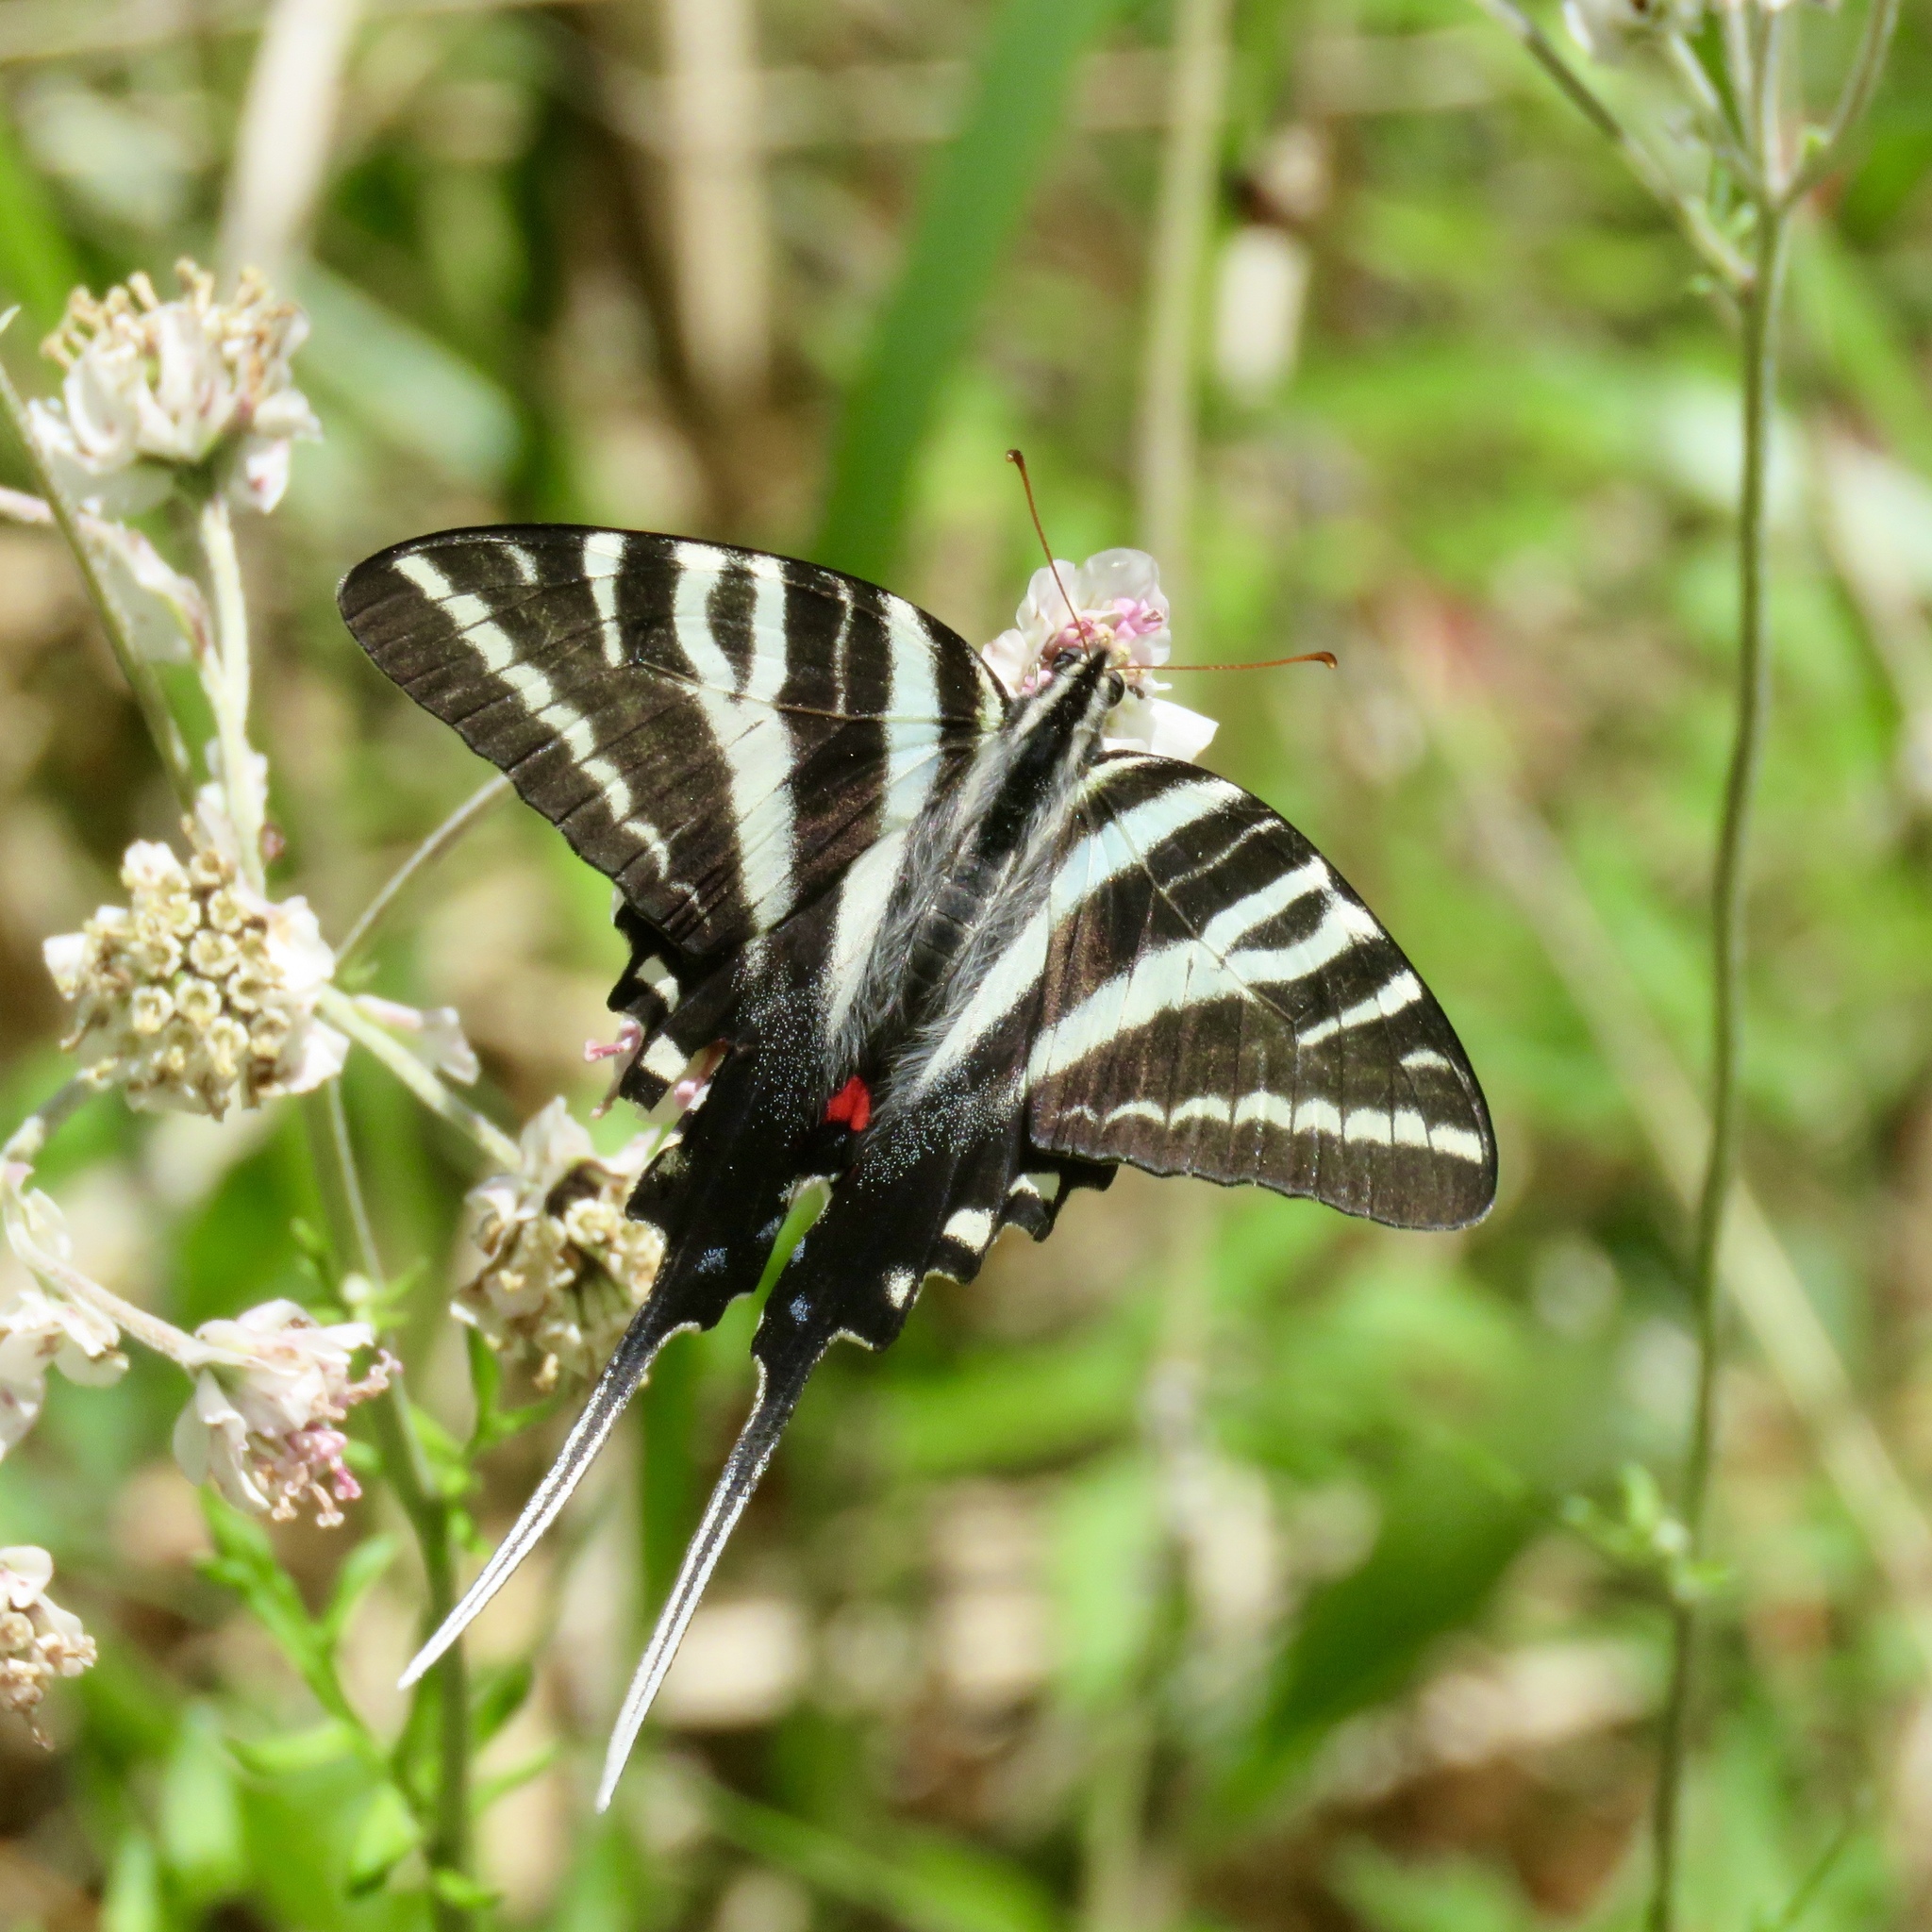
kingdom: Animalia
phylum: Arthropoda
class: Insecta
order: Lepidoptera
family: Papilionidae
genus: Protographium
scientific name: Protographium marcellus
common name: Zebra swallowtail
